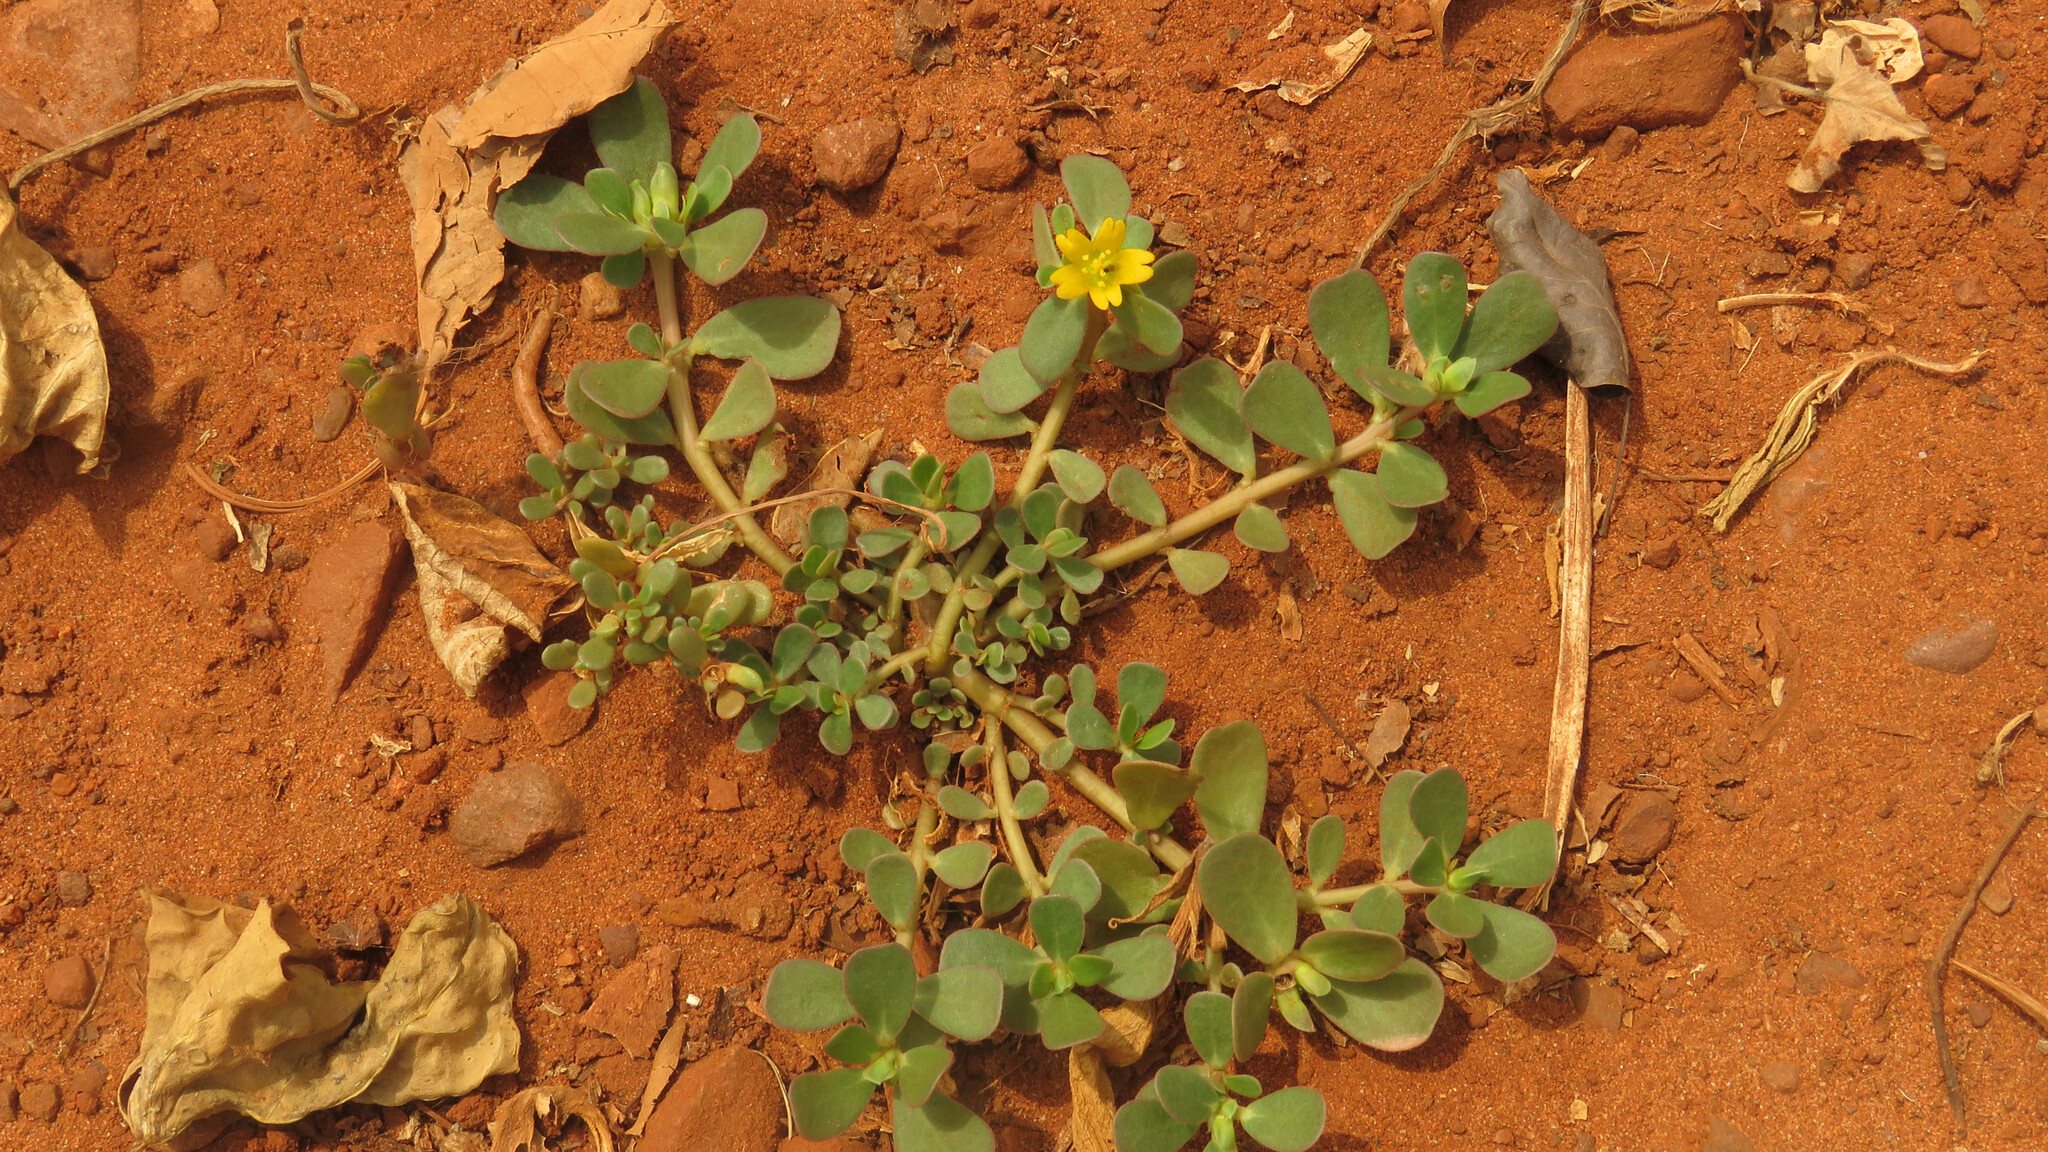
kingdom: Plantae
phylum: Tracheophyta
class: Magnoliopsida
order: Caryophyllales
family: Portulacaceae
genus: Portulaca
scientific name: Portulaca oleracea
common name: Common purslane
